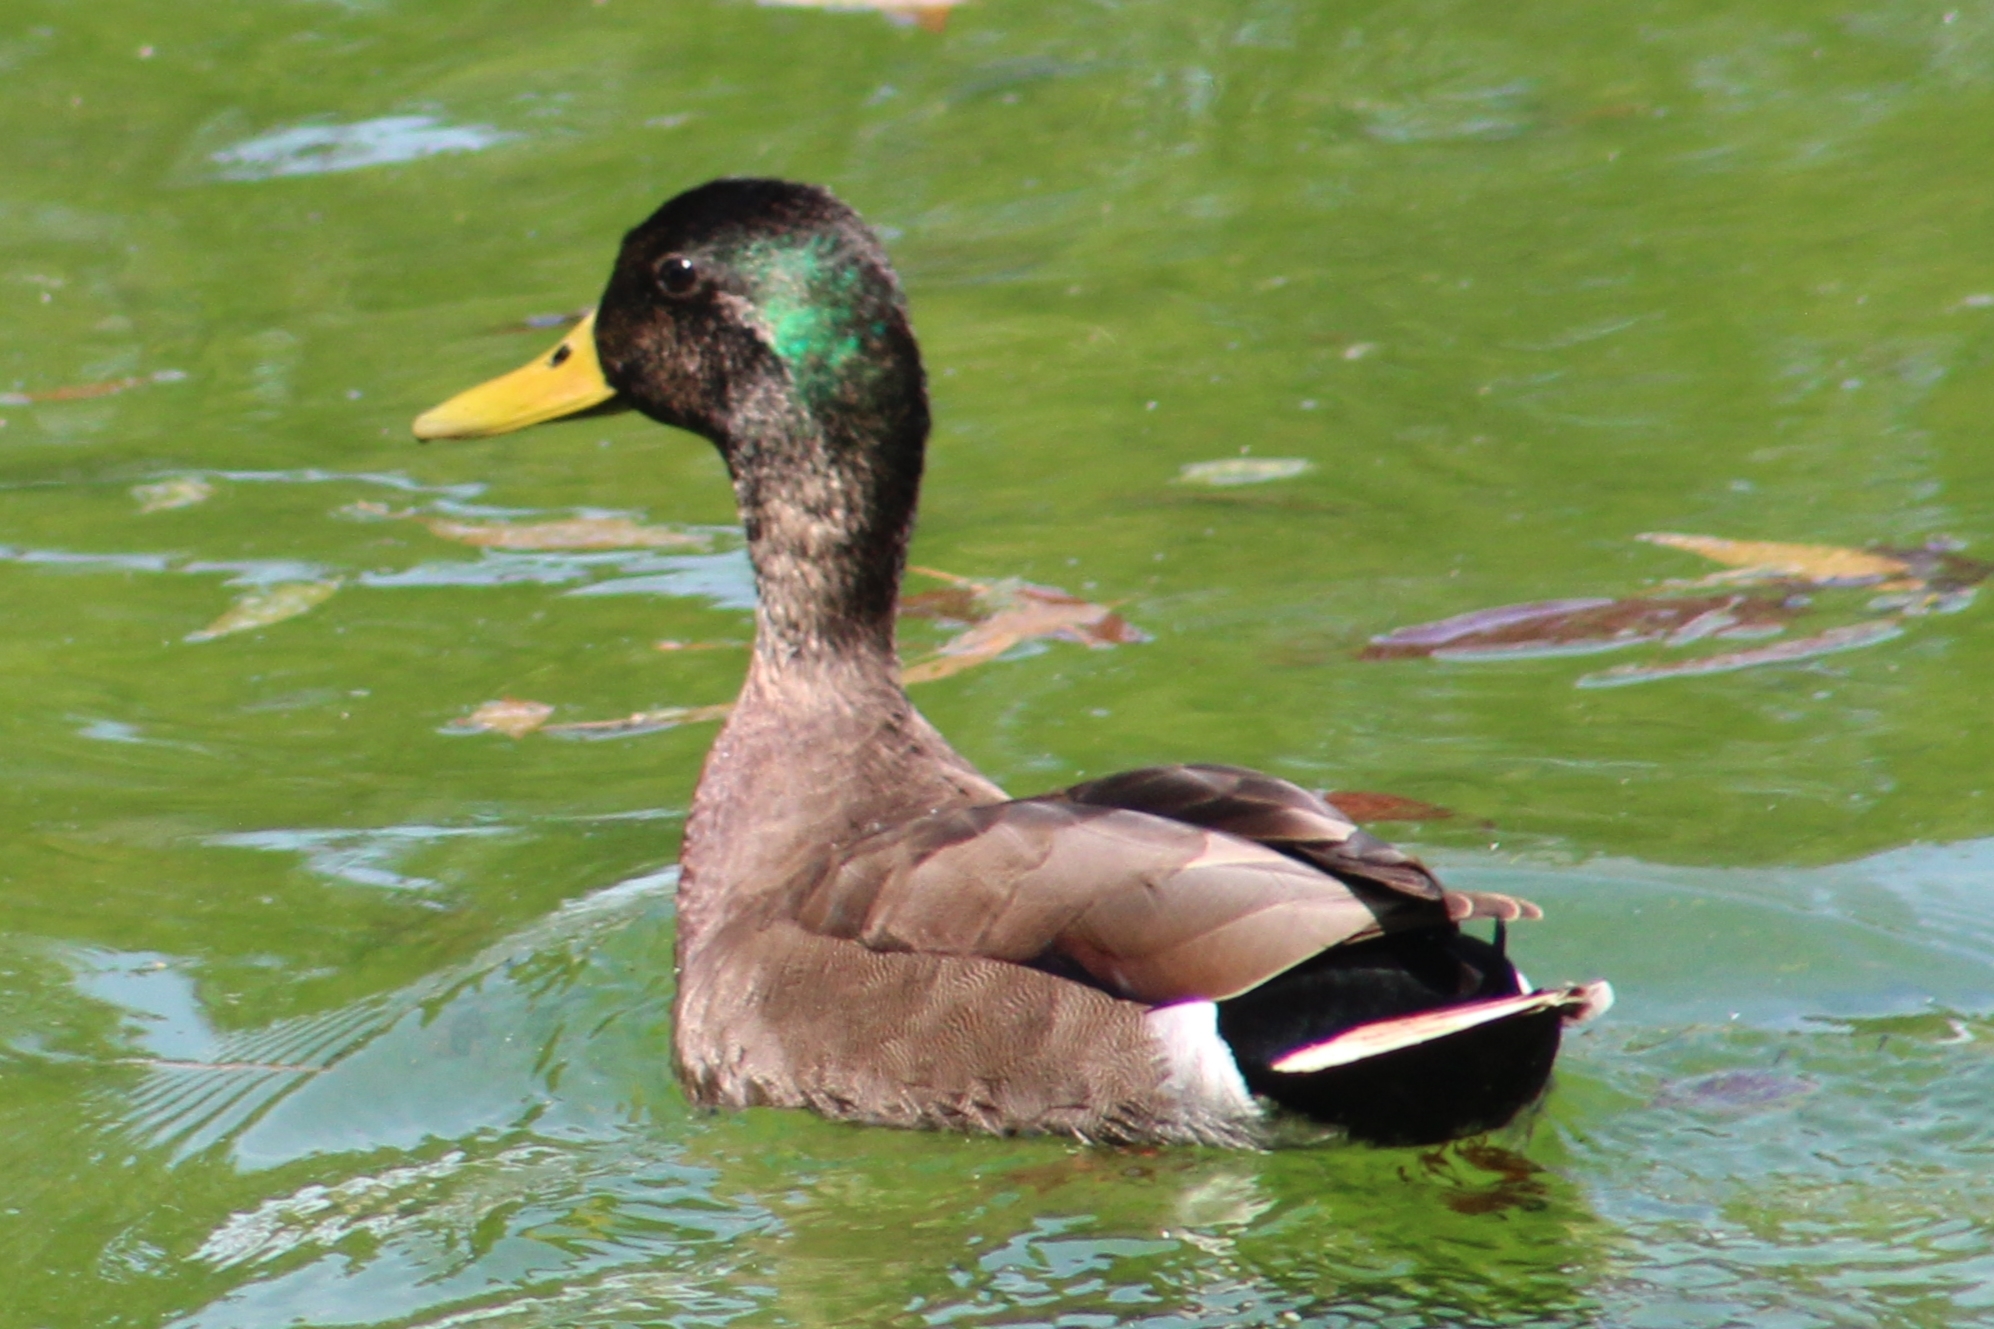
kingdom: Animalia
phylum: Chordata
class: Aves
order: Anseriformes
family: Anatidae
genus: Anas
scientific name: Anas platyrhynchos
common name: Mallard
